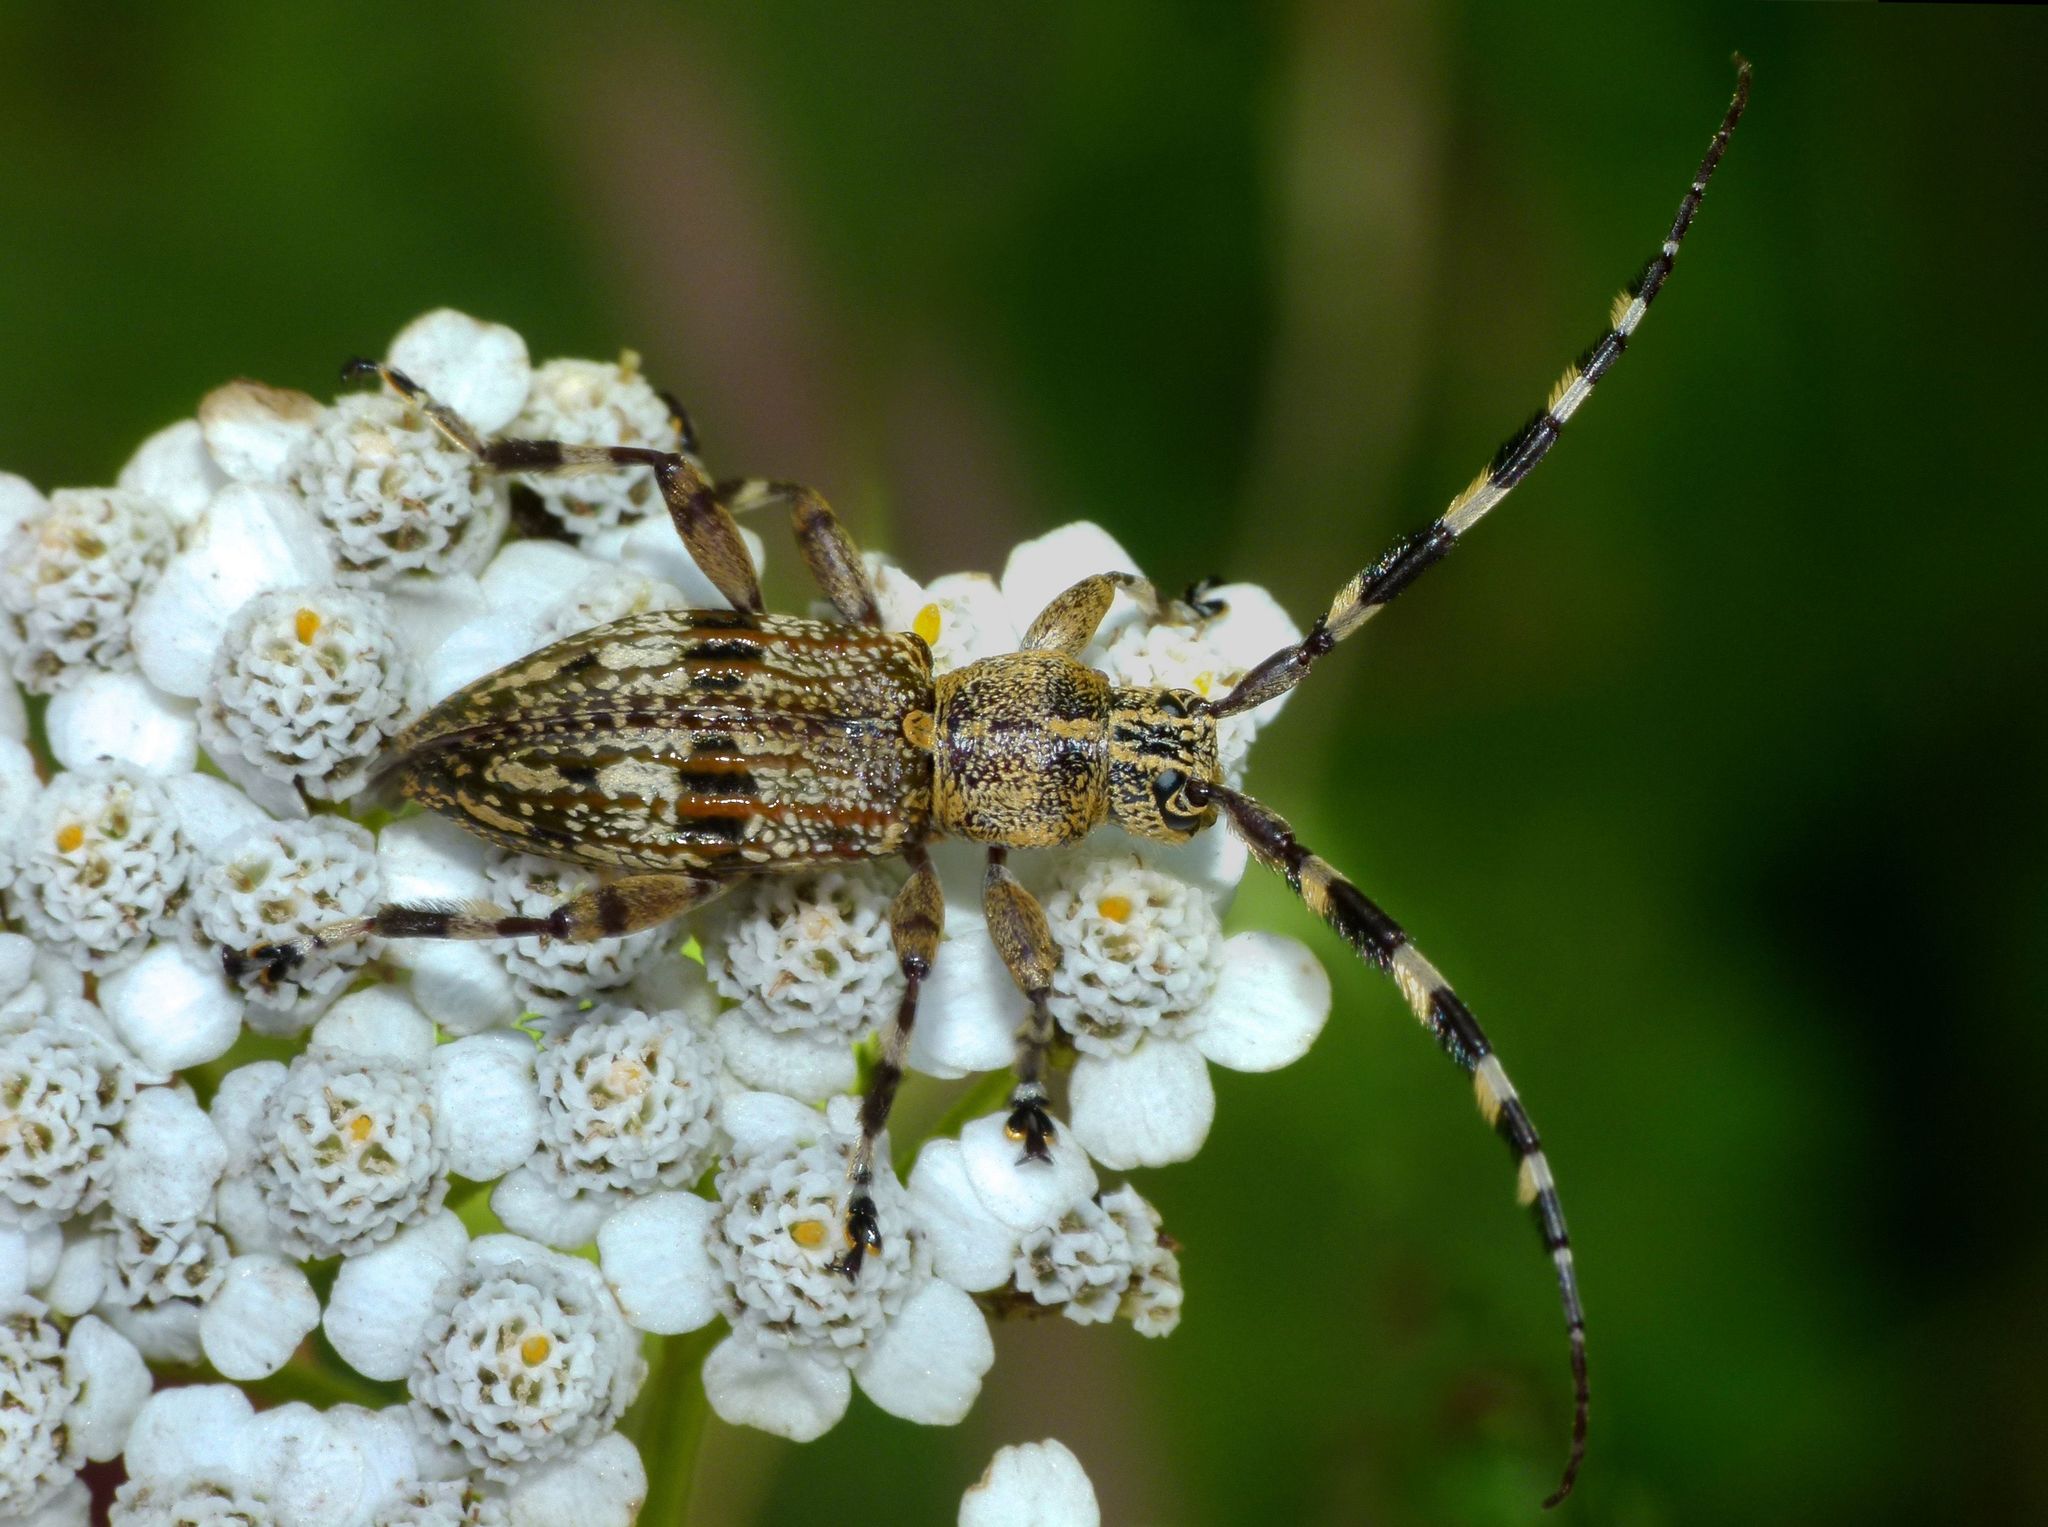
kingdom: Animalia
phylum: Arthropoda
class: Insecta
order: Coleoptera
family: Cerambycidae
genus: Hexatricha
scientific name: Hexatricha pulverulenta
